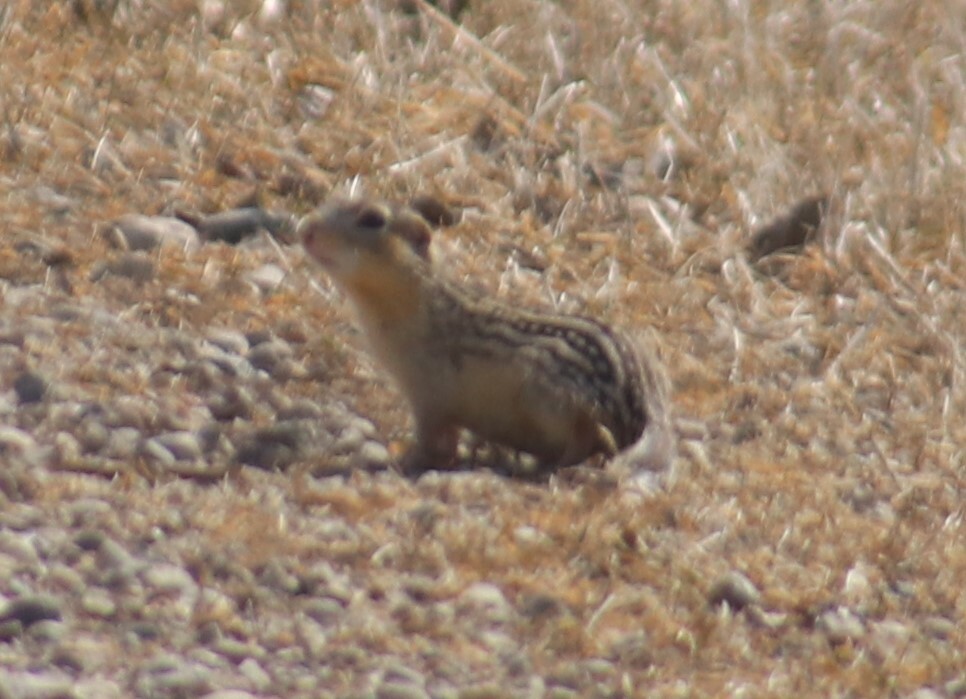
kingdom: Animalia
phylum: Chordata
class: Mammalia
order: Rodentia
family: Sciuridae
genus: Ictidomys
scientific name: Ictidomys tridecemlineatus
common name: Thirteen-lined ground squirrel
